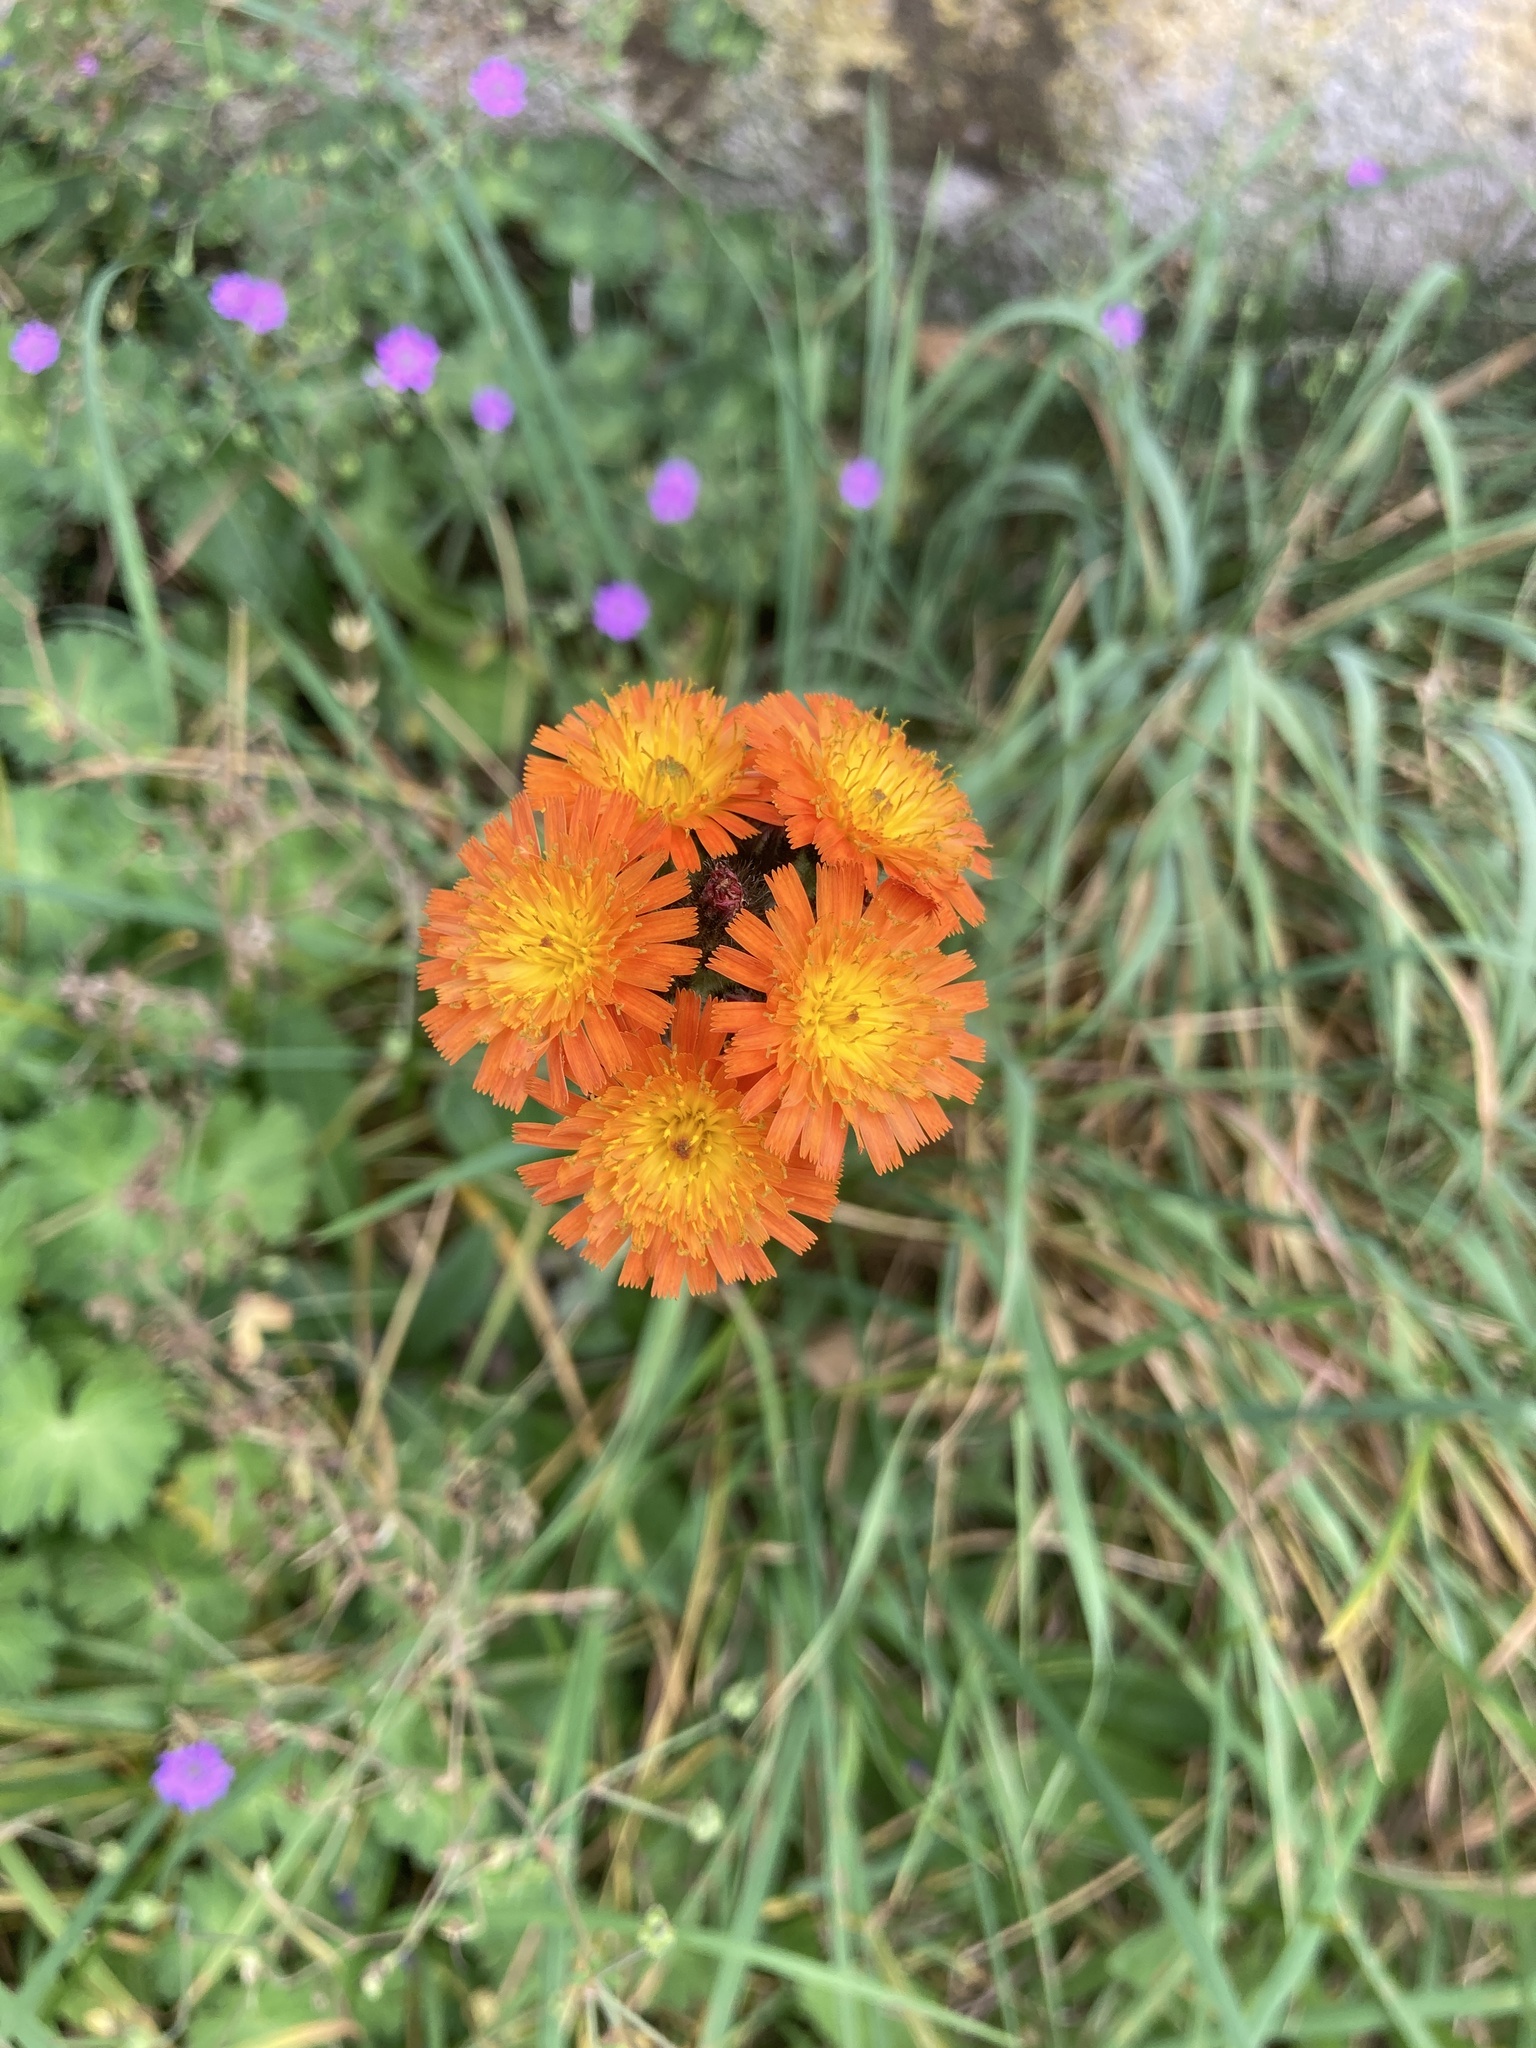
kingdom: Plantae
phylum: Tracheophyta
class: Magnoliopsida
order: Asterales
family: Asteraceae
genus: Pilosella
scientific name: Pilosella aurantiaca
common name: Fox-and-cubs
